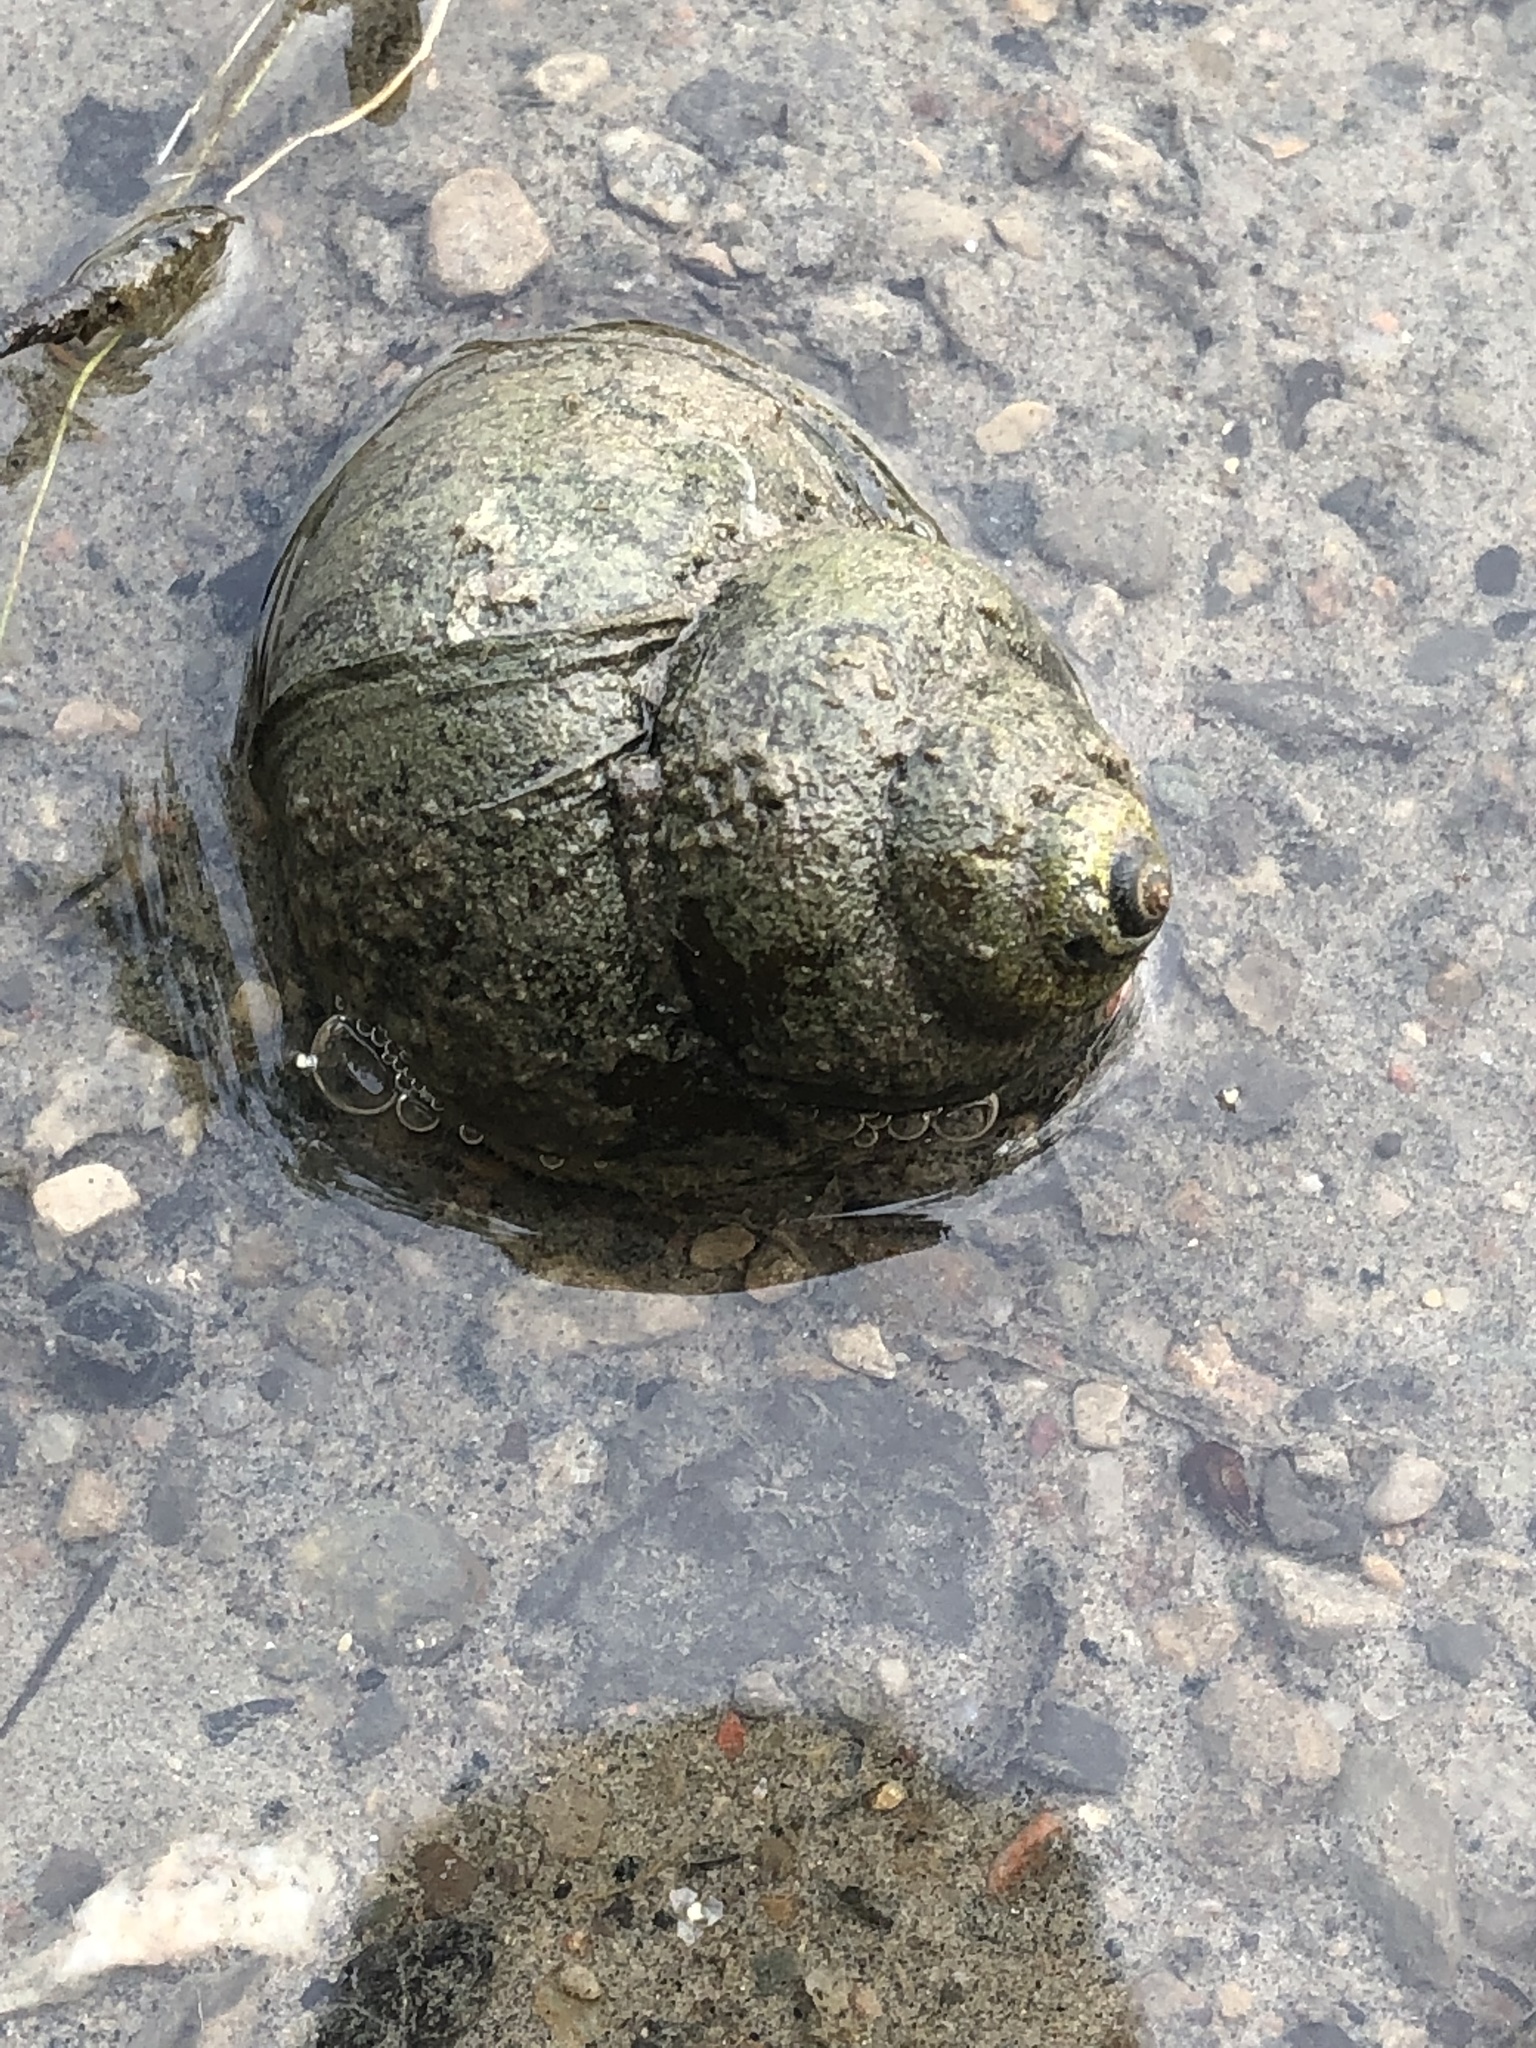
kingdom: Animalia
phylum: Mollusca
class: Gastropoda
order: Architaenioglossa
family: Viviparidae
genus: Cipangopaludina
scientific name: Cipangopaludina chinensis
